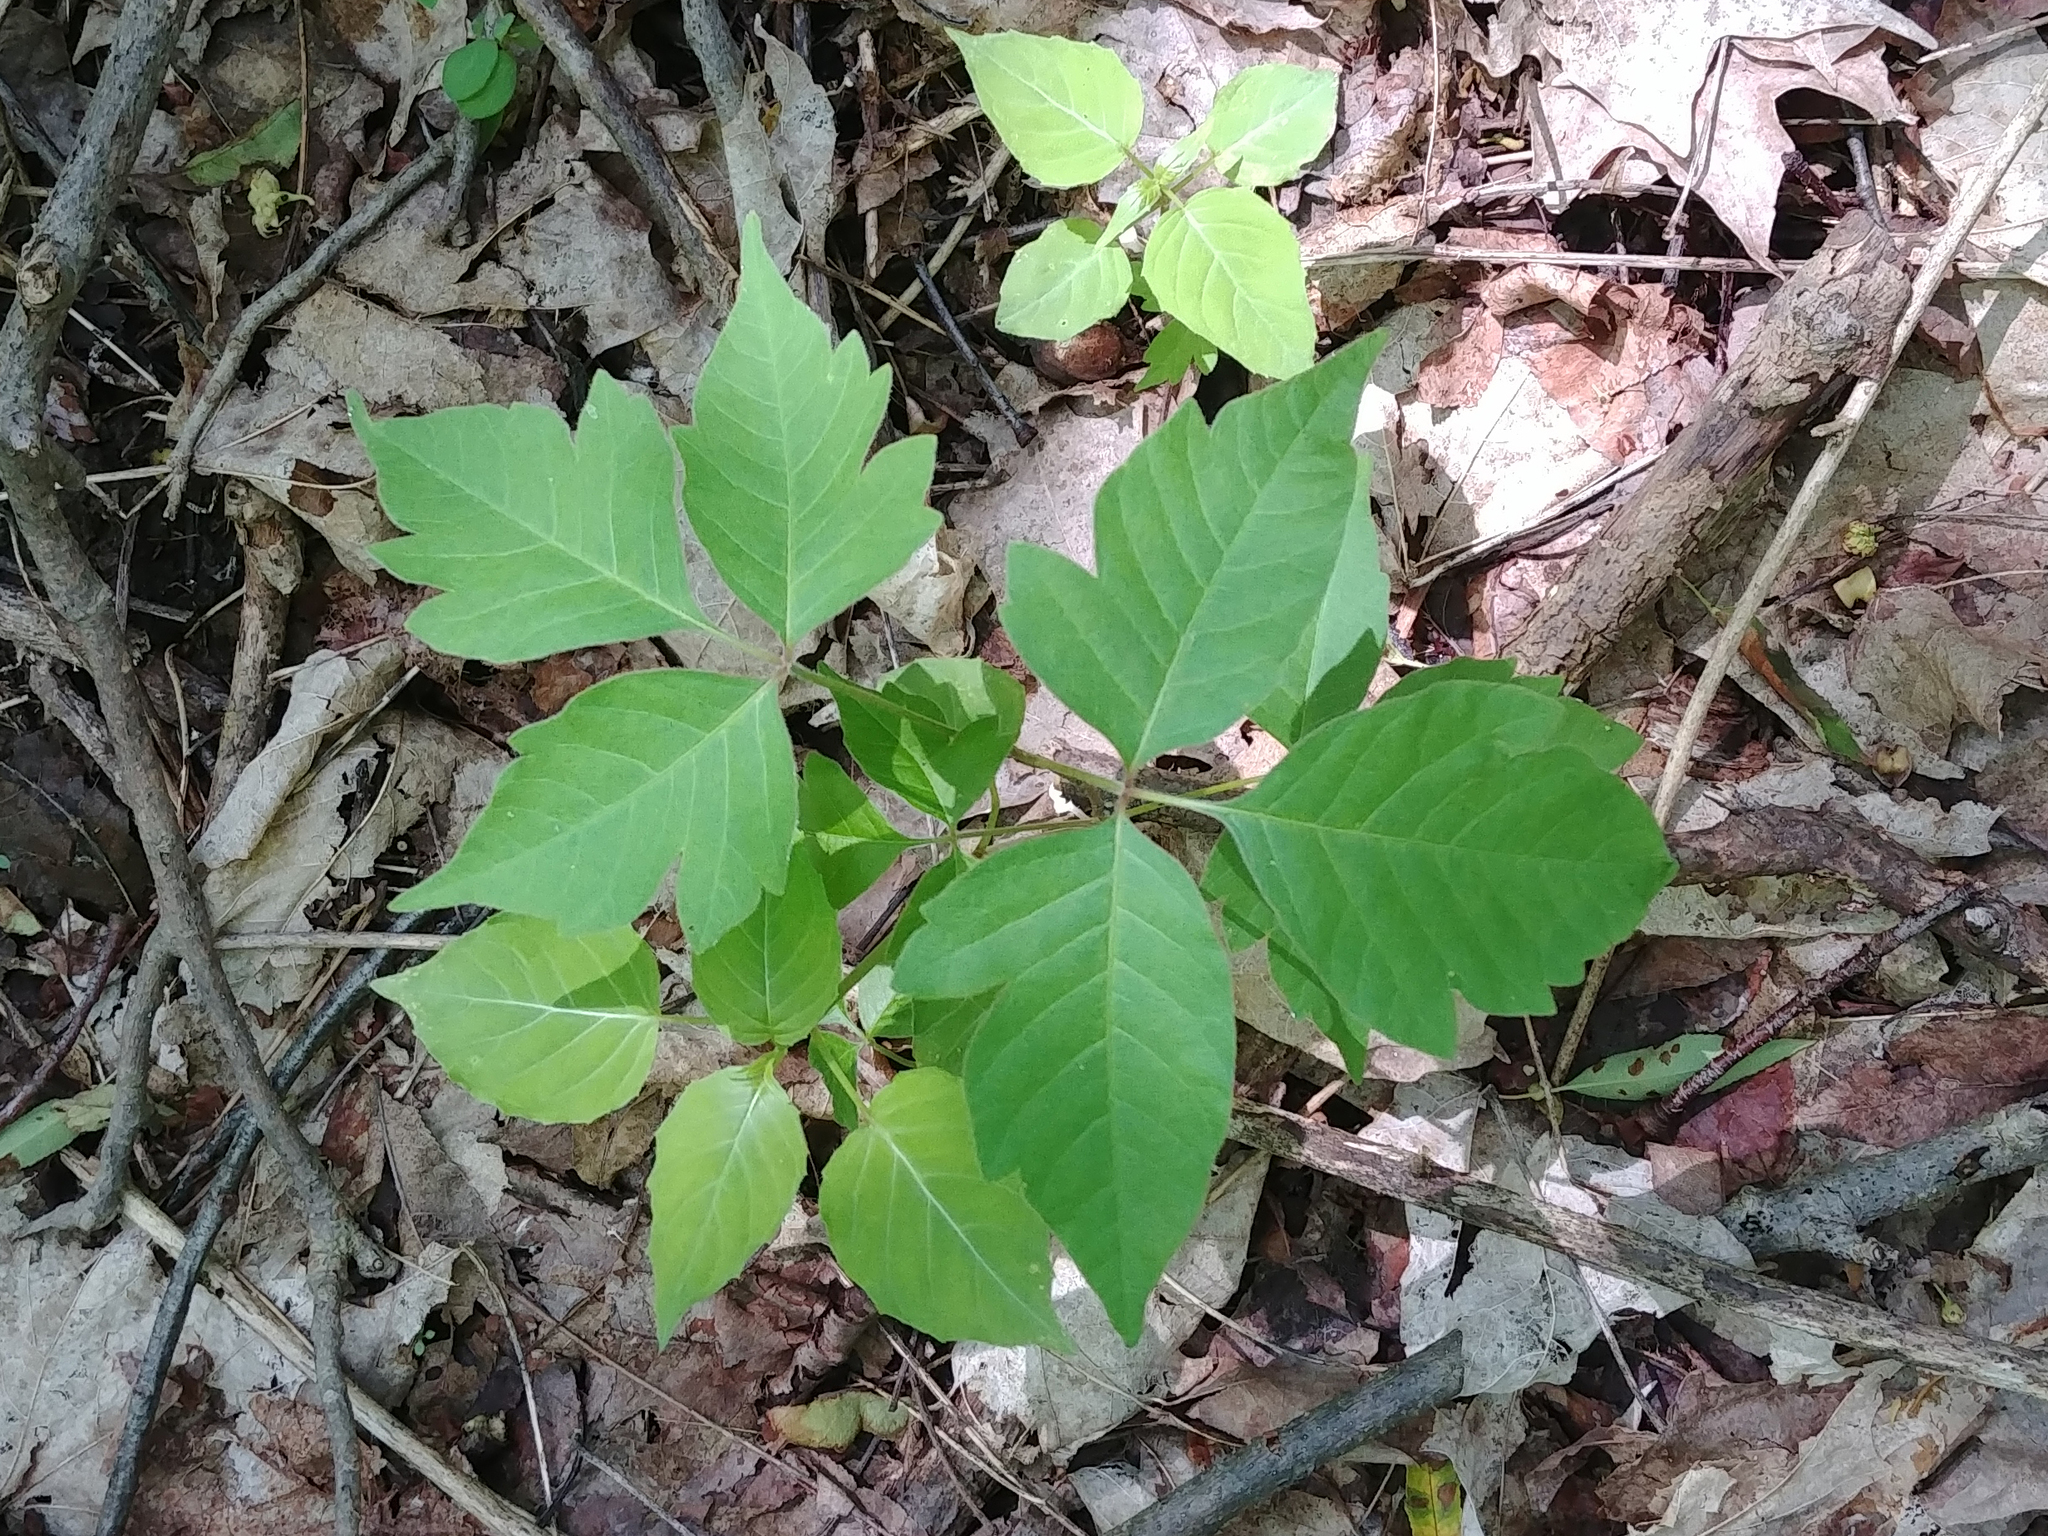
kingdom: Plantae
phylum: Tracheophyta
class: Magnoliopsida
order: Sapindales
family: Anacardiaceae
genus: Toxicodendron
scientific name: Toxicodendron radicans
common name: Poison ivy
